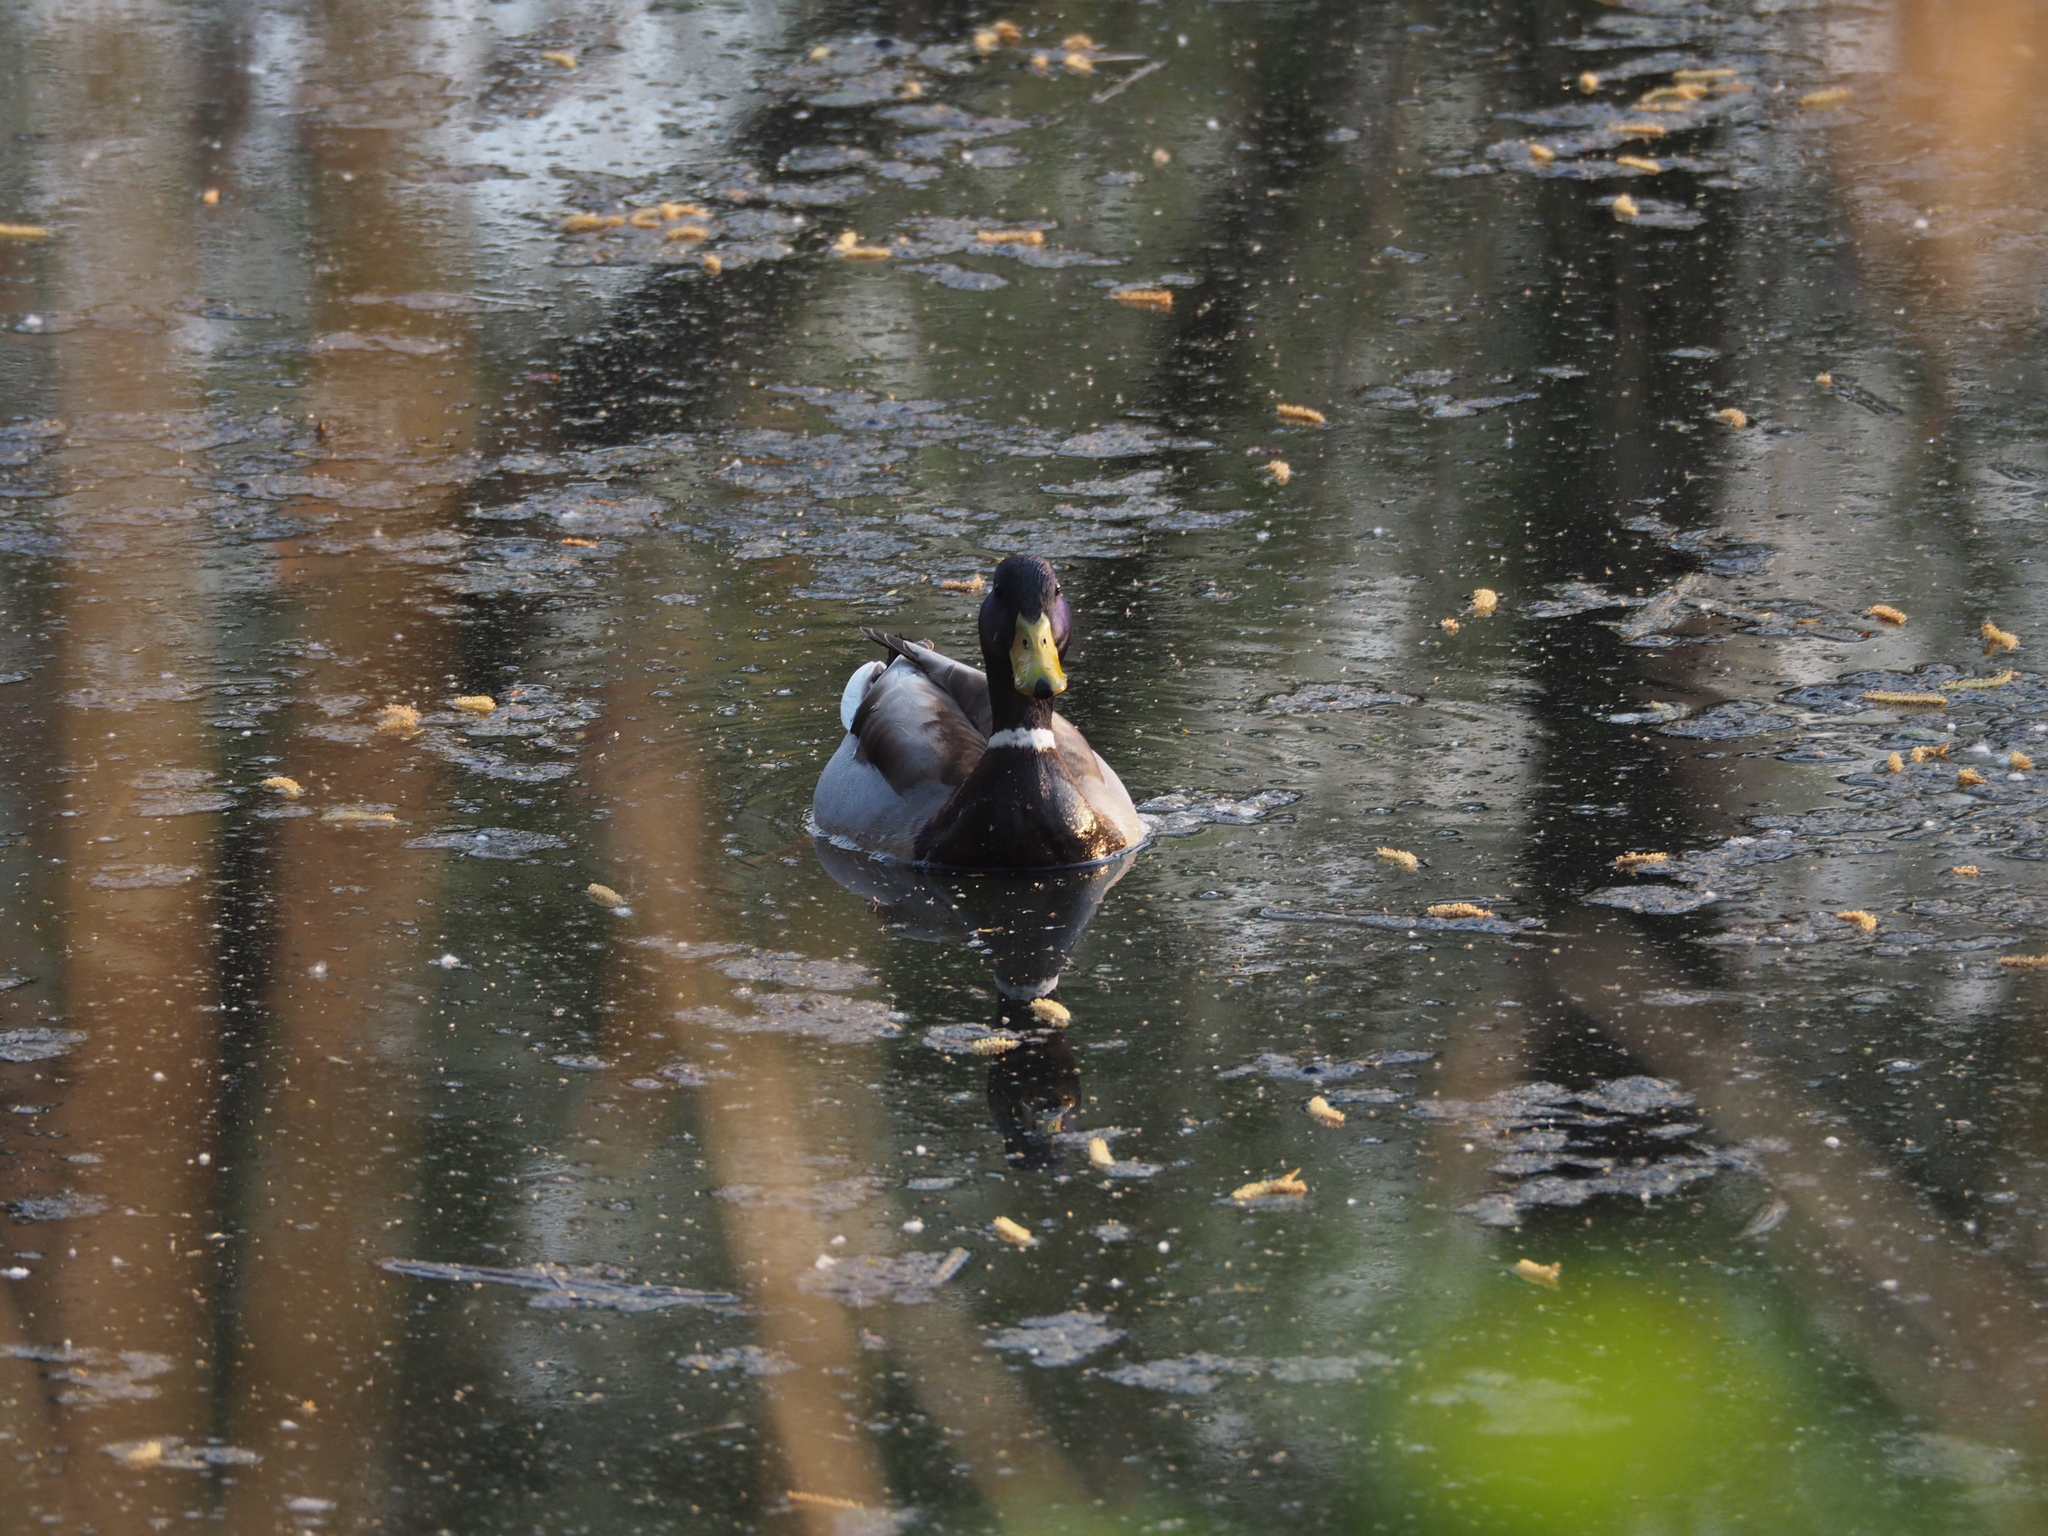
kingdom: Animalia
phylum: Chordata
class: Aves
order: Anseriformes
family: Anatidae
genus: Anas
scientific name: Anas platyrhynchos
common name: Mallard
